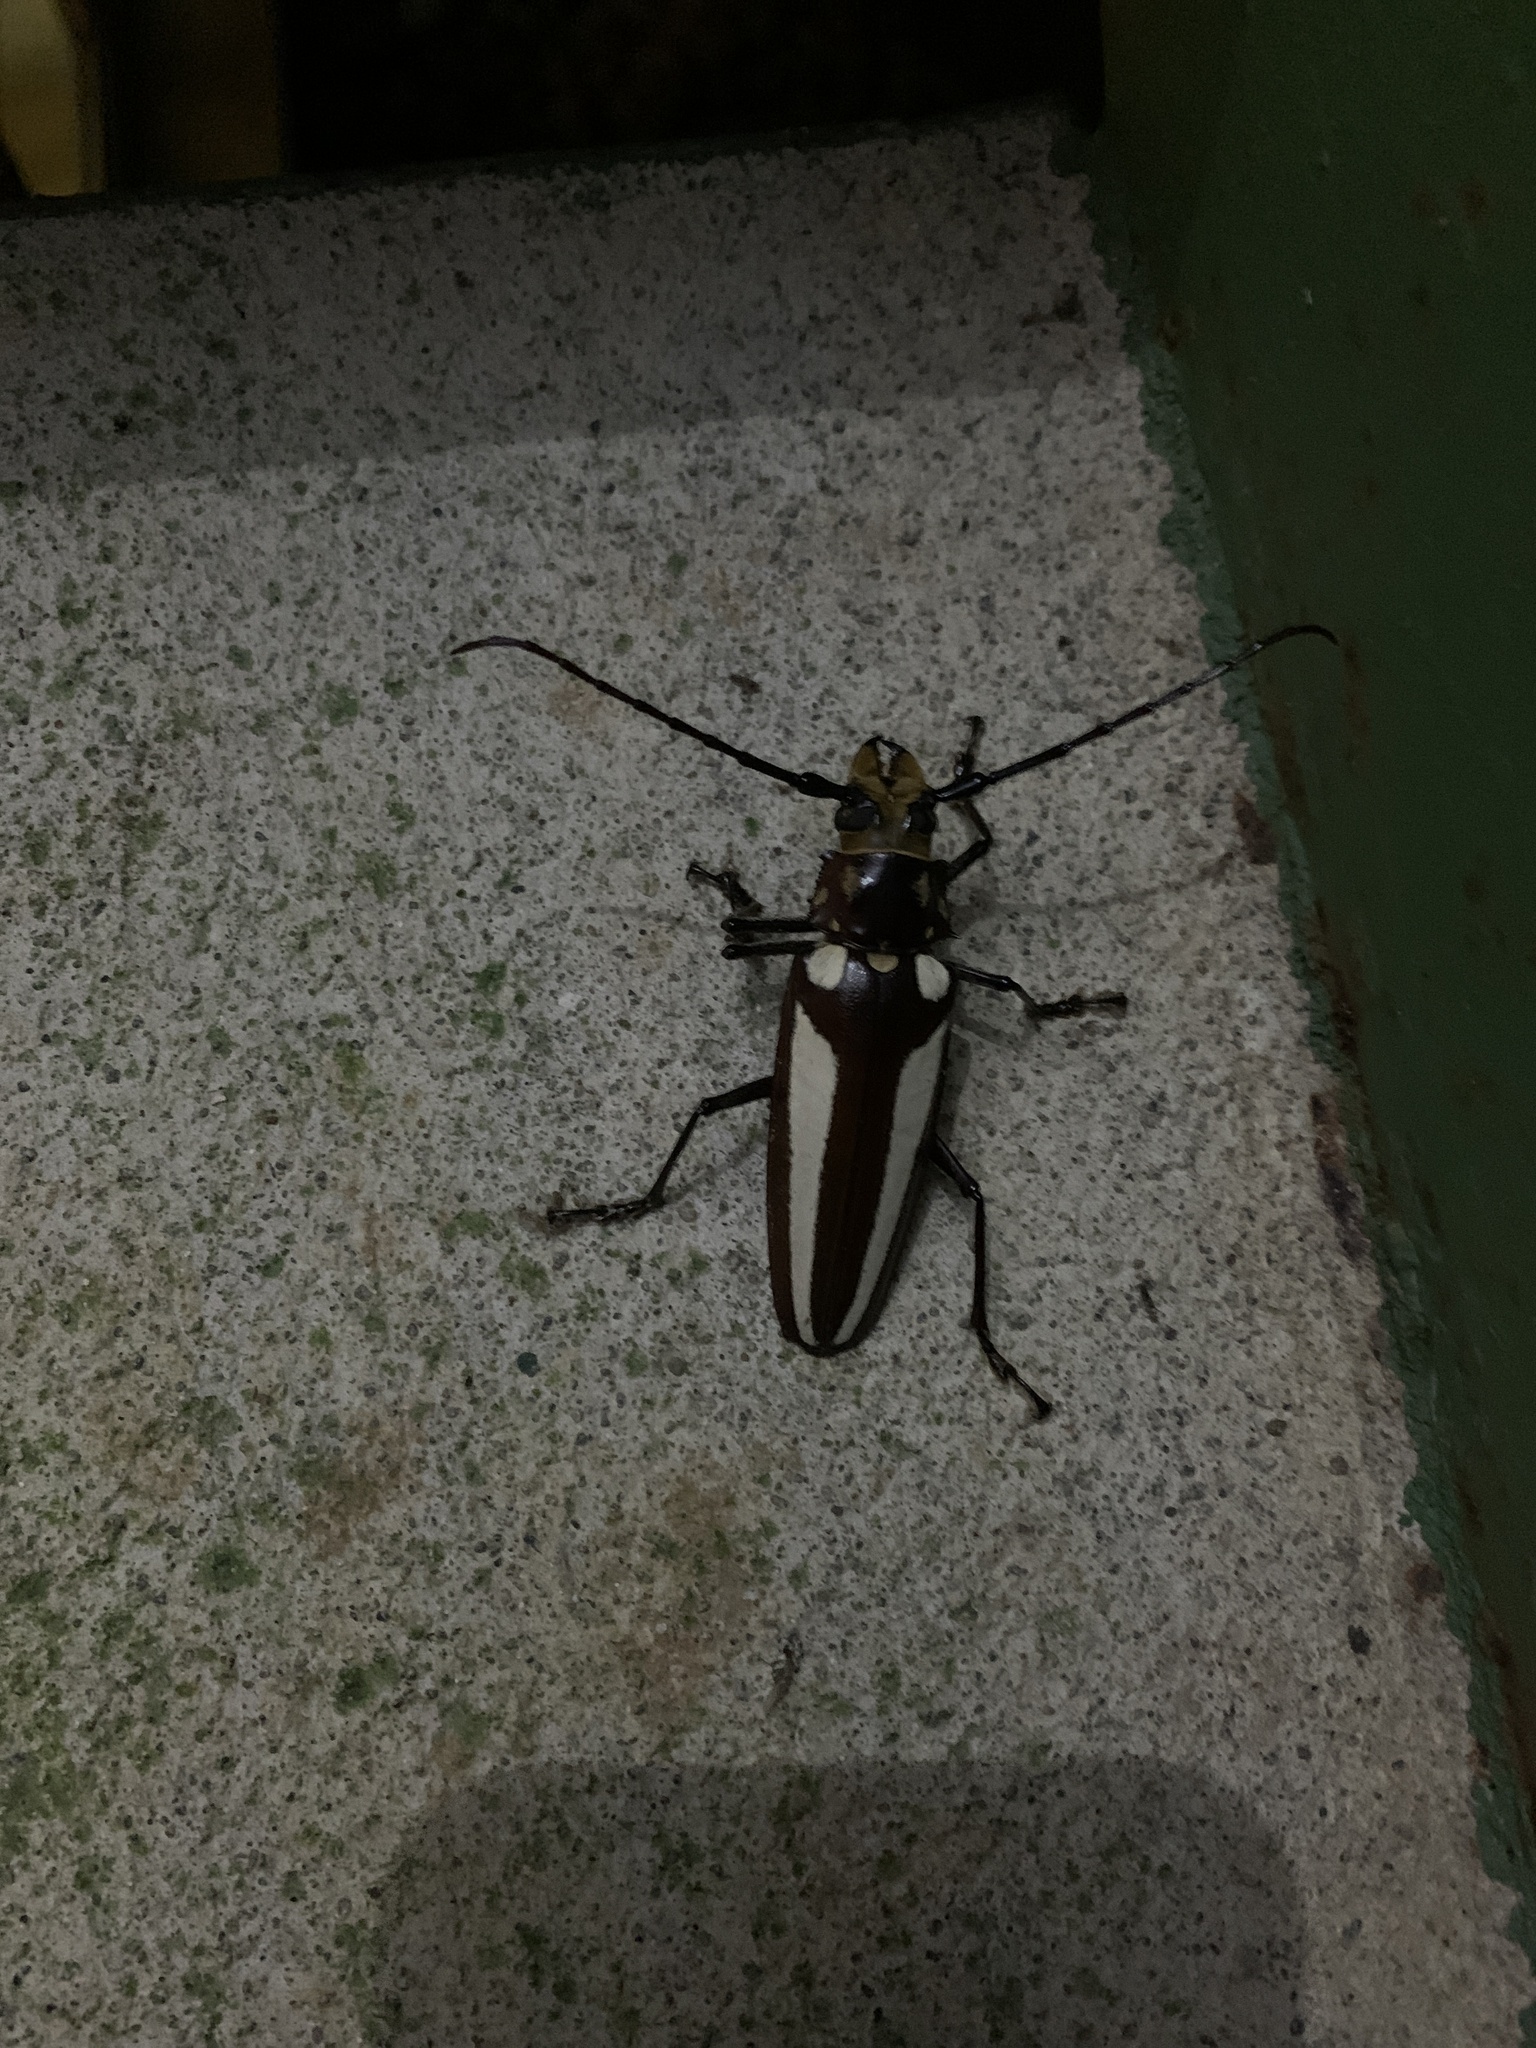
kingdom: Animalia
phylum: Arthropoda
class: Insecta
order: Coleoptera
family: Cerambycidae
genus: Callipogon
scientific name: Callipogon lemoinei
